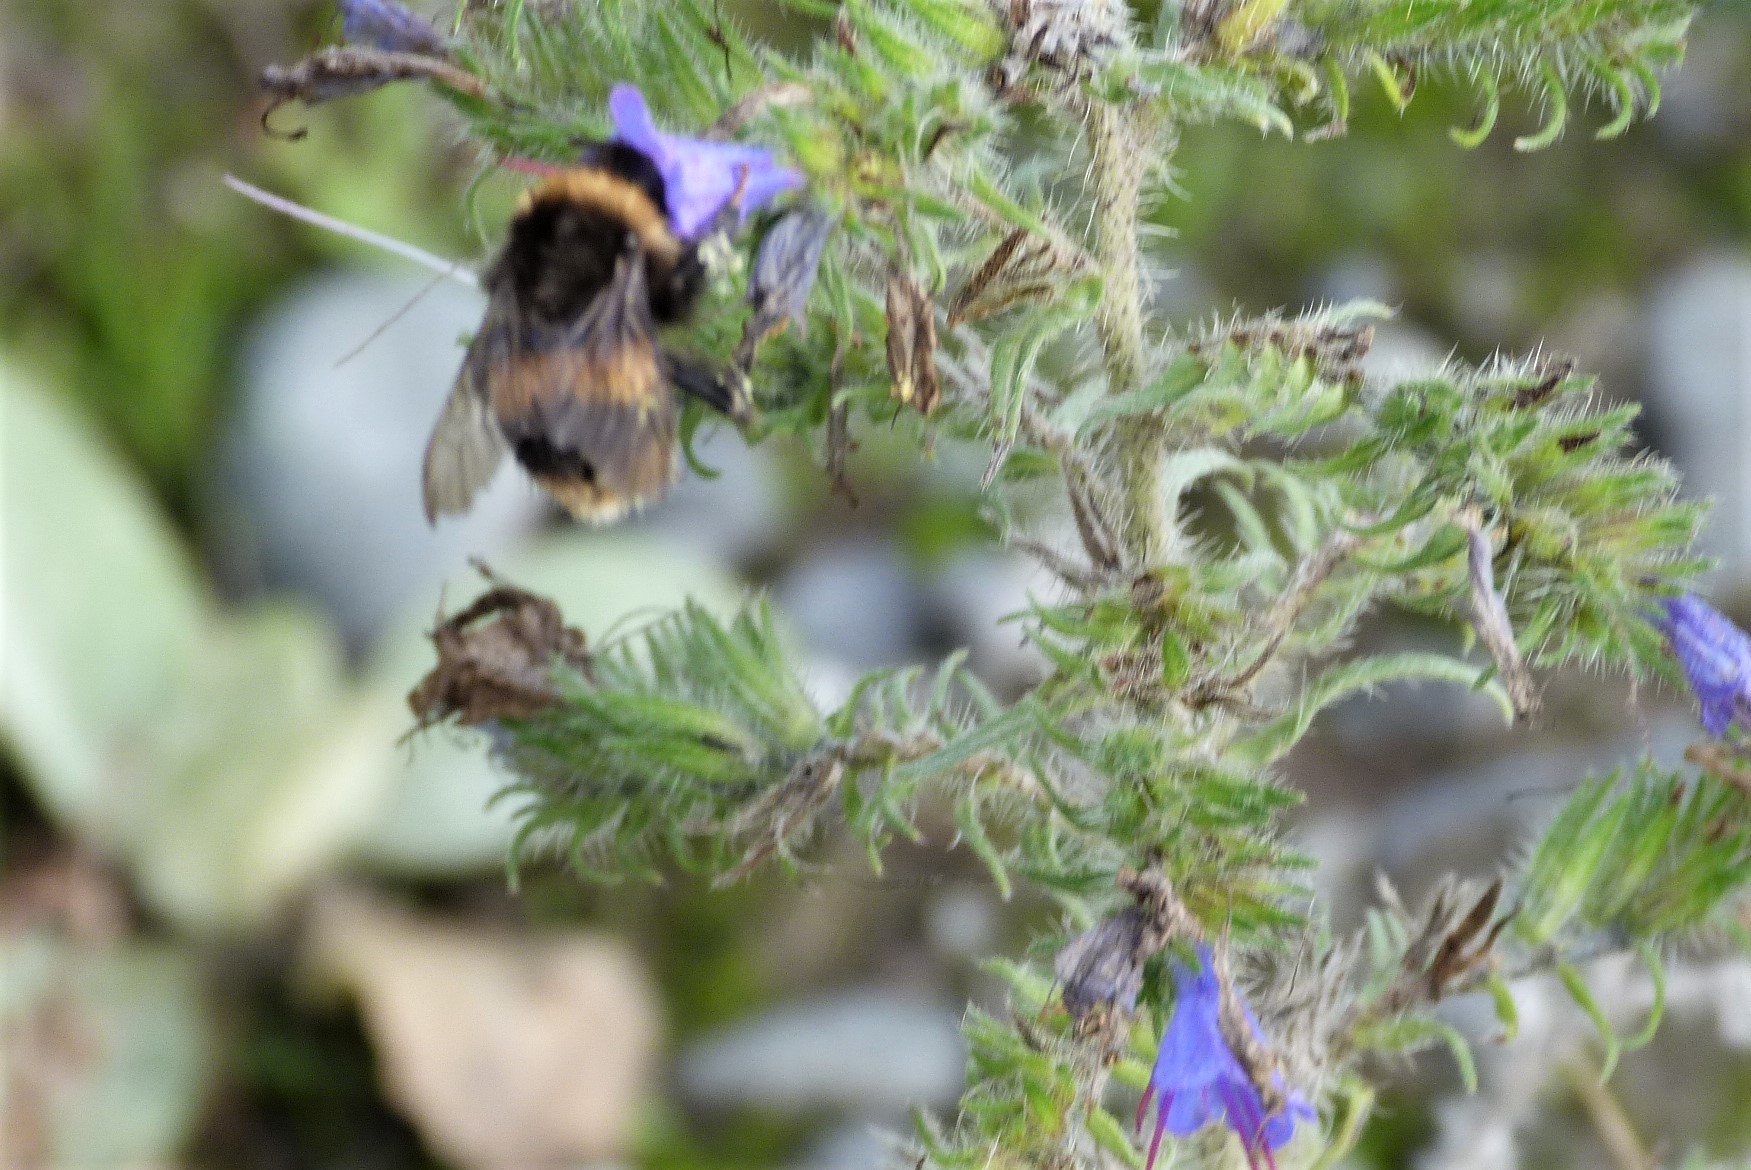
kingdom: Animalia
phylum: Arthropoda
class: Insecta
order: Hymenoptera
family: Apidae
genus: Bombus
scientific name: Bombus terrestris
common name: Buff-tailed bumblebee
